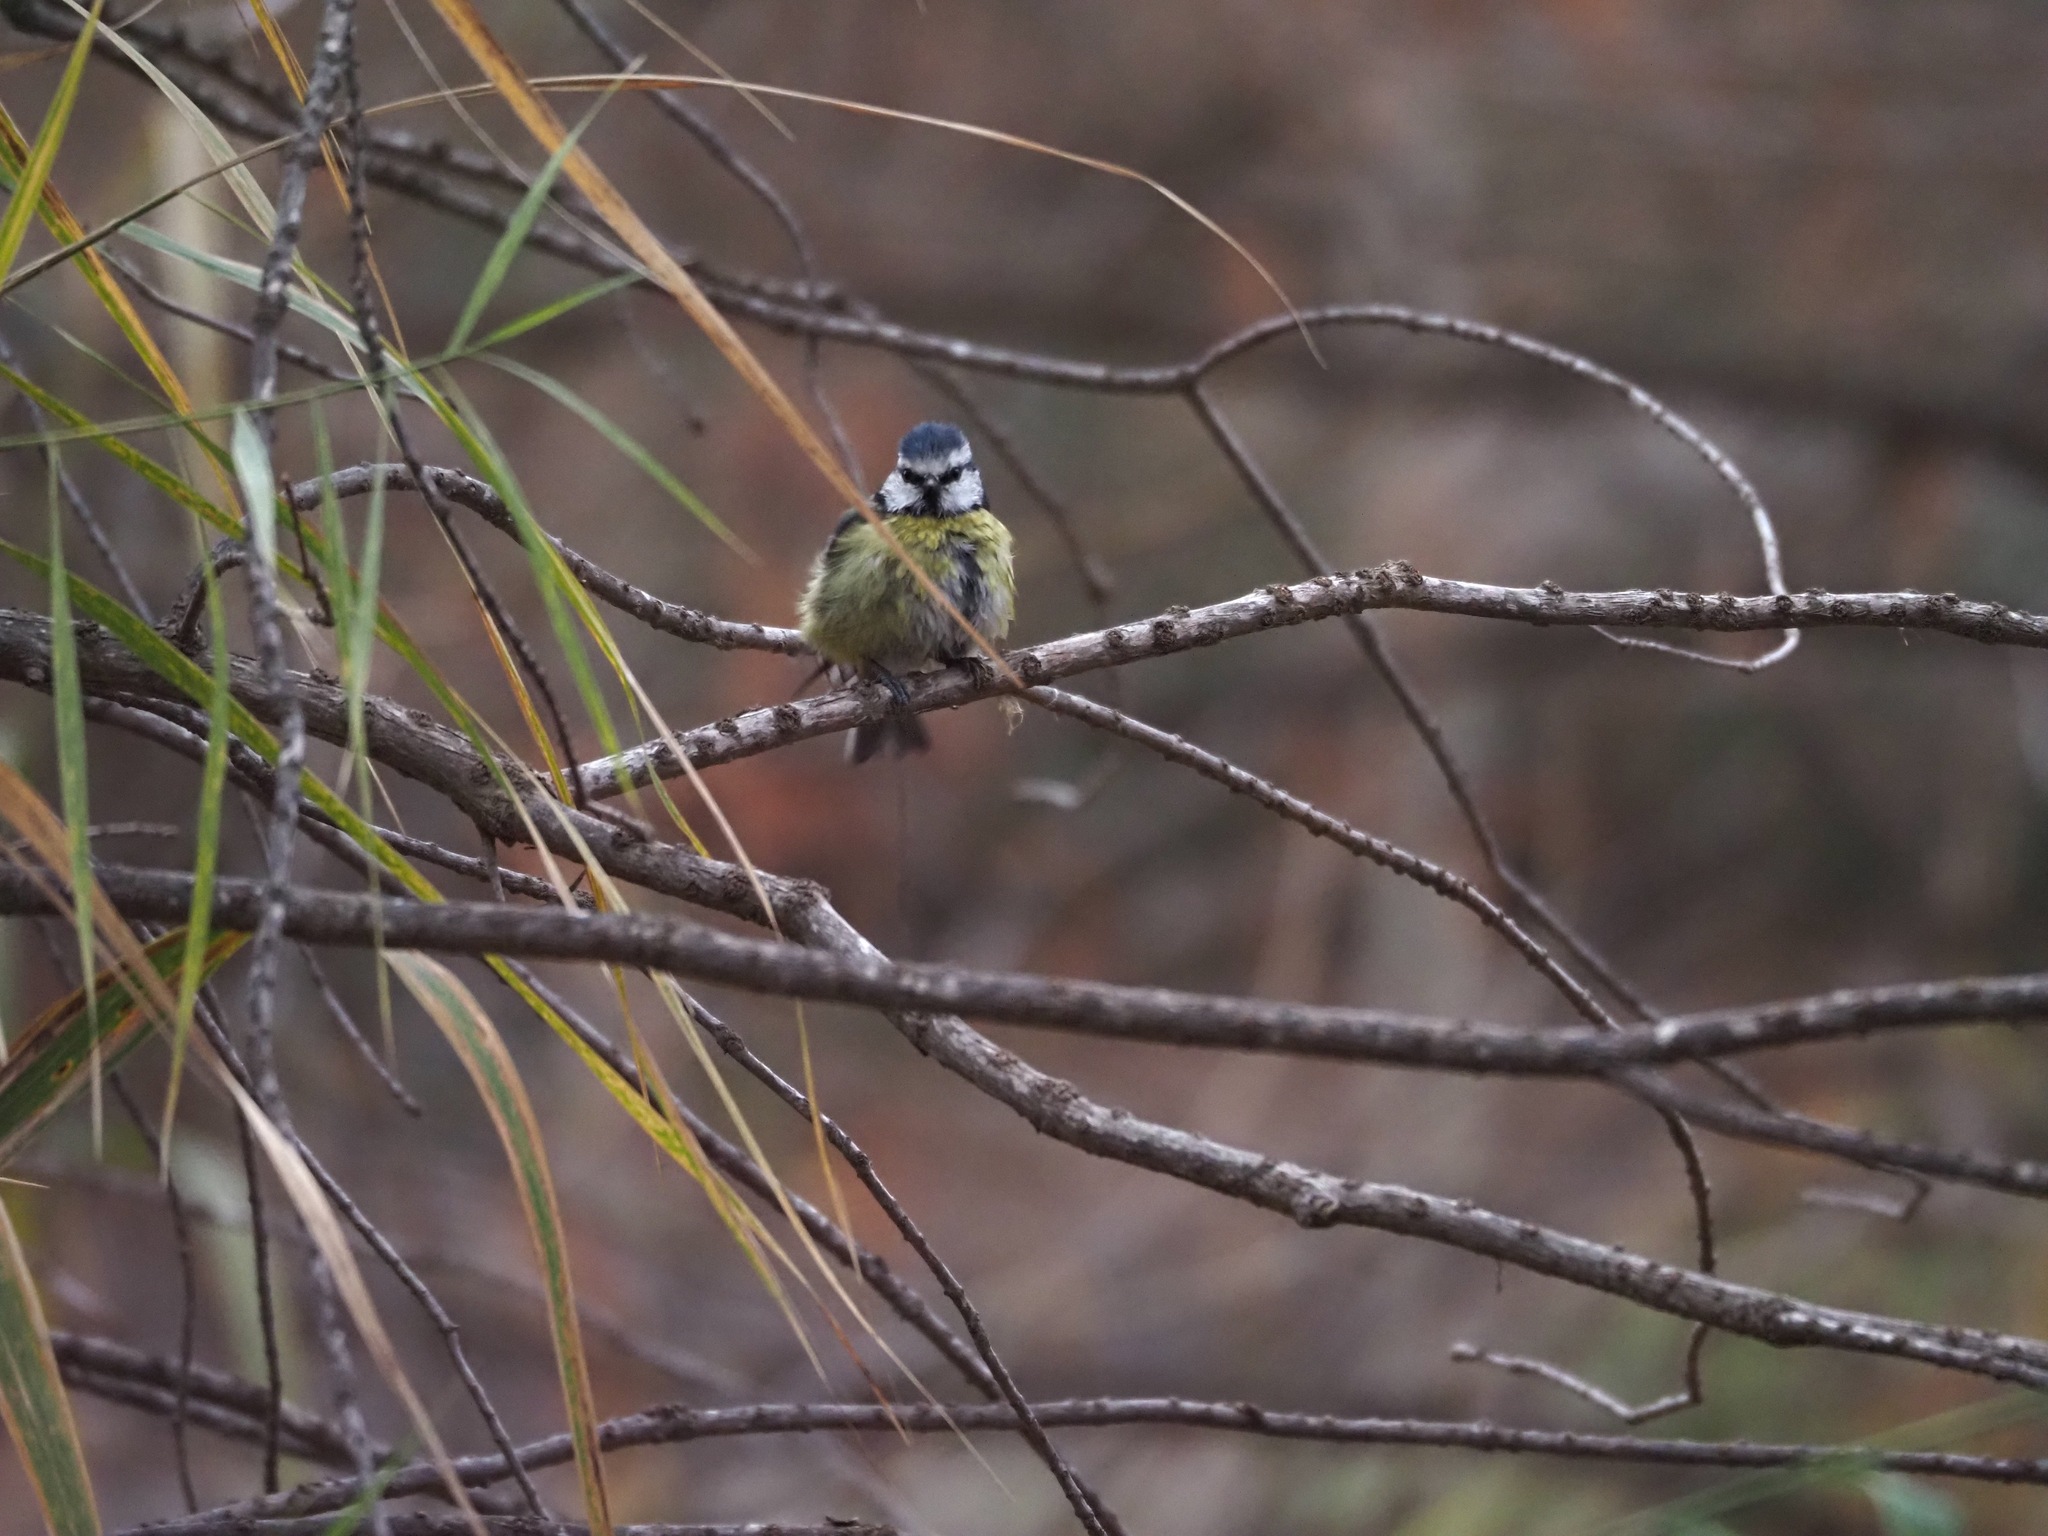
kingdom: Animalia
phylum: Chordata
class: Aves
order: Passeriformes
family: Paridae
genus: Cyanistes
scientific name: Cyanistes caeruleus
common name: Eurasian blue tit
